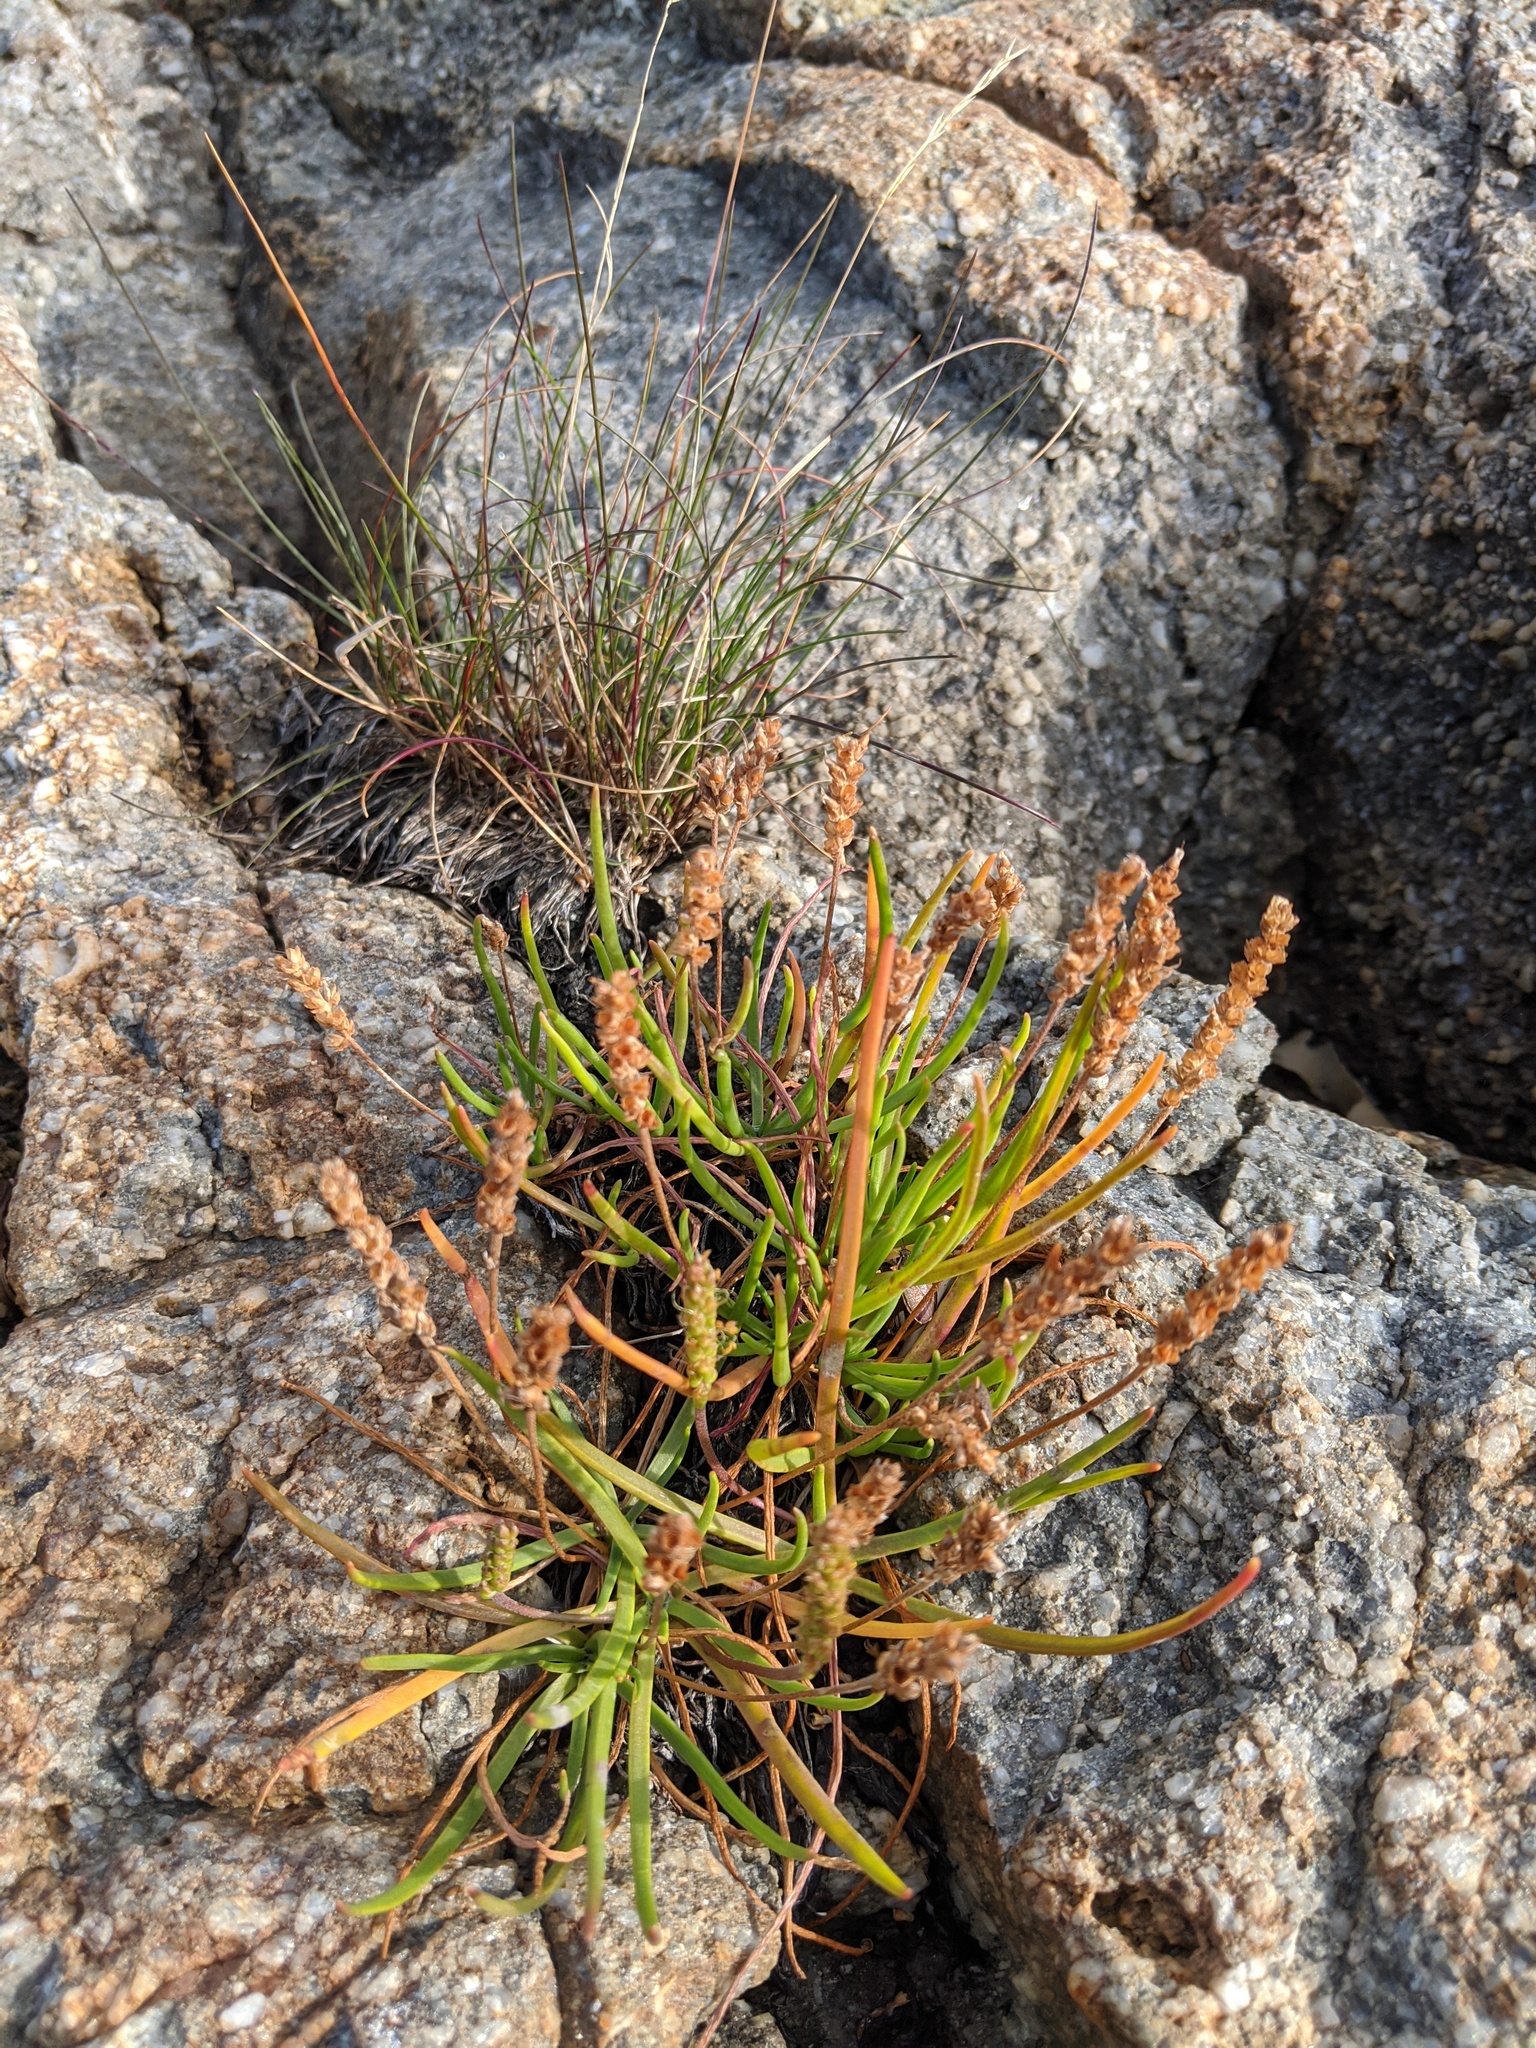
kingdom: Plantae
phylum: Tracheophyta
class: Magnoliopsida
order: Lamiales
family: Plantaginaceae
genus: Plantago
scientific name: Plantago maritima
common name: Sea plantain
